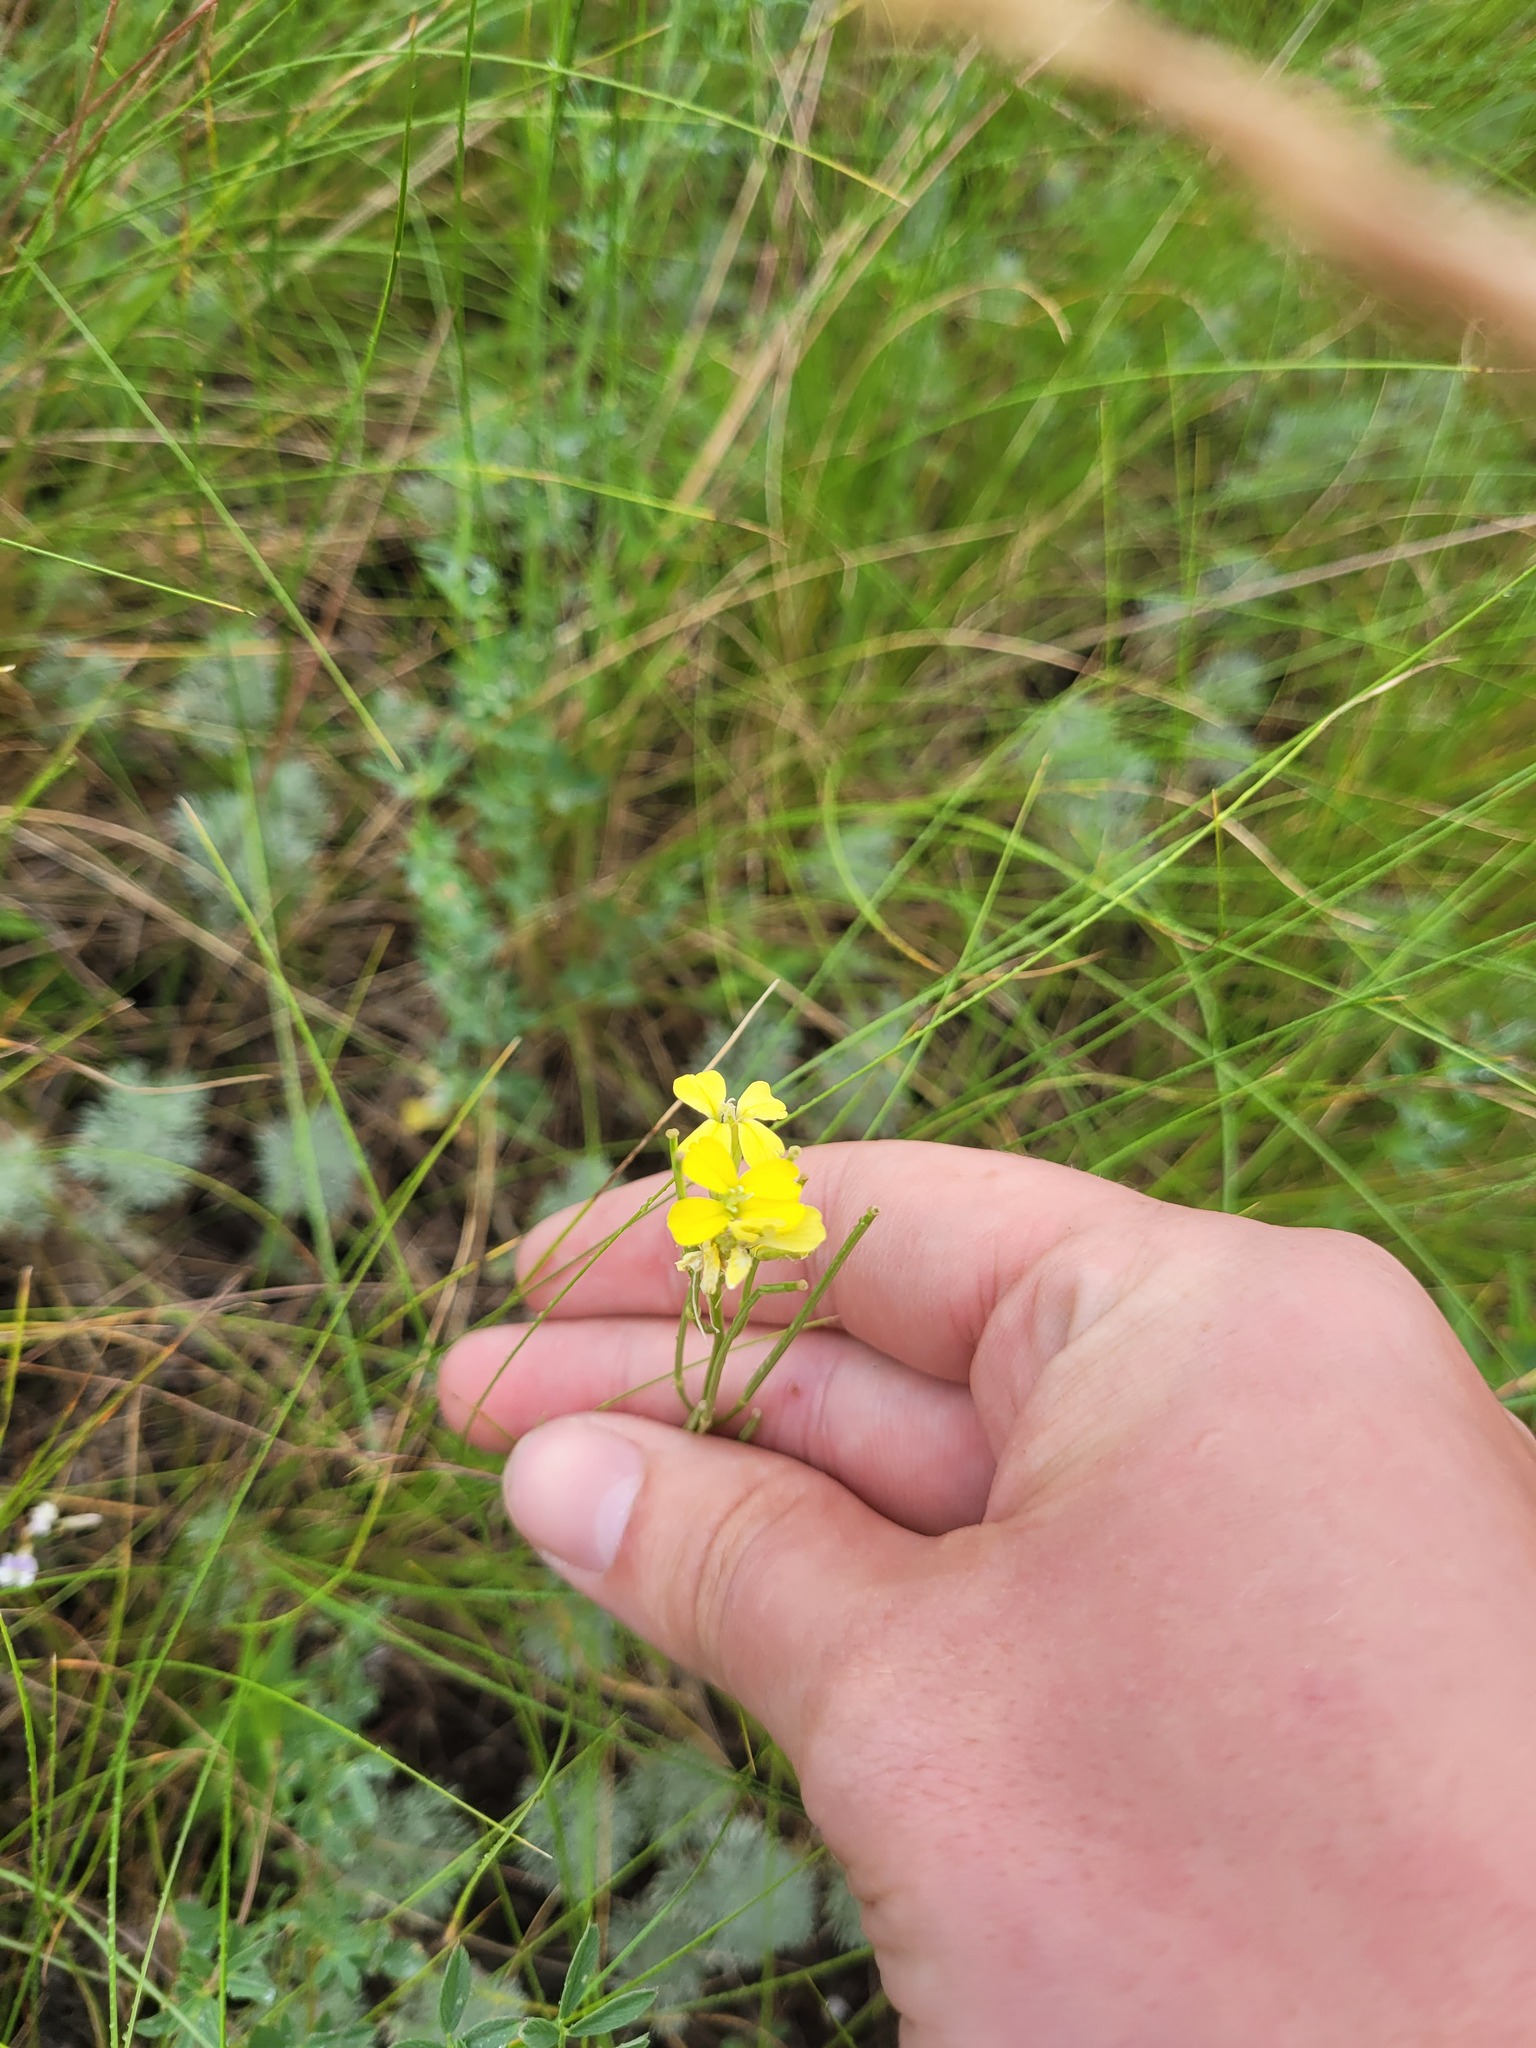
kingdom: Plantae
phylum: Tracheophyta
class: Magnoliopsida
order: Brassicales
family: Brassicaceae
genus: Erysimum
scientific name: Erysimum diffusum
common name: Diffuse wallflower
